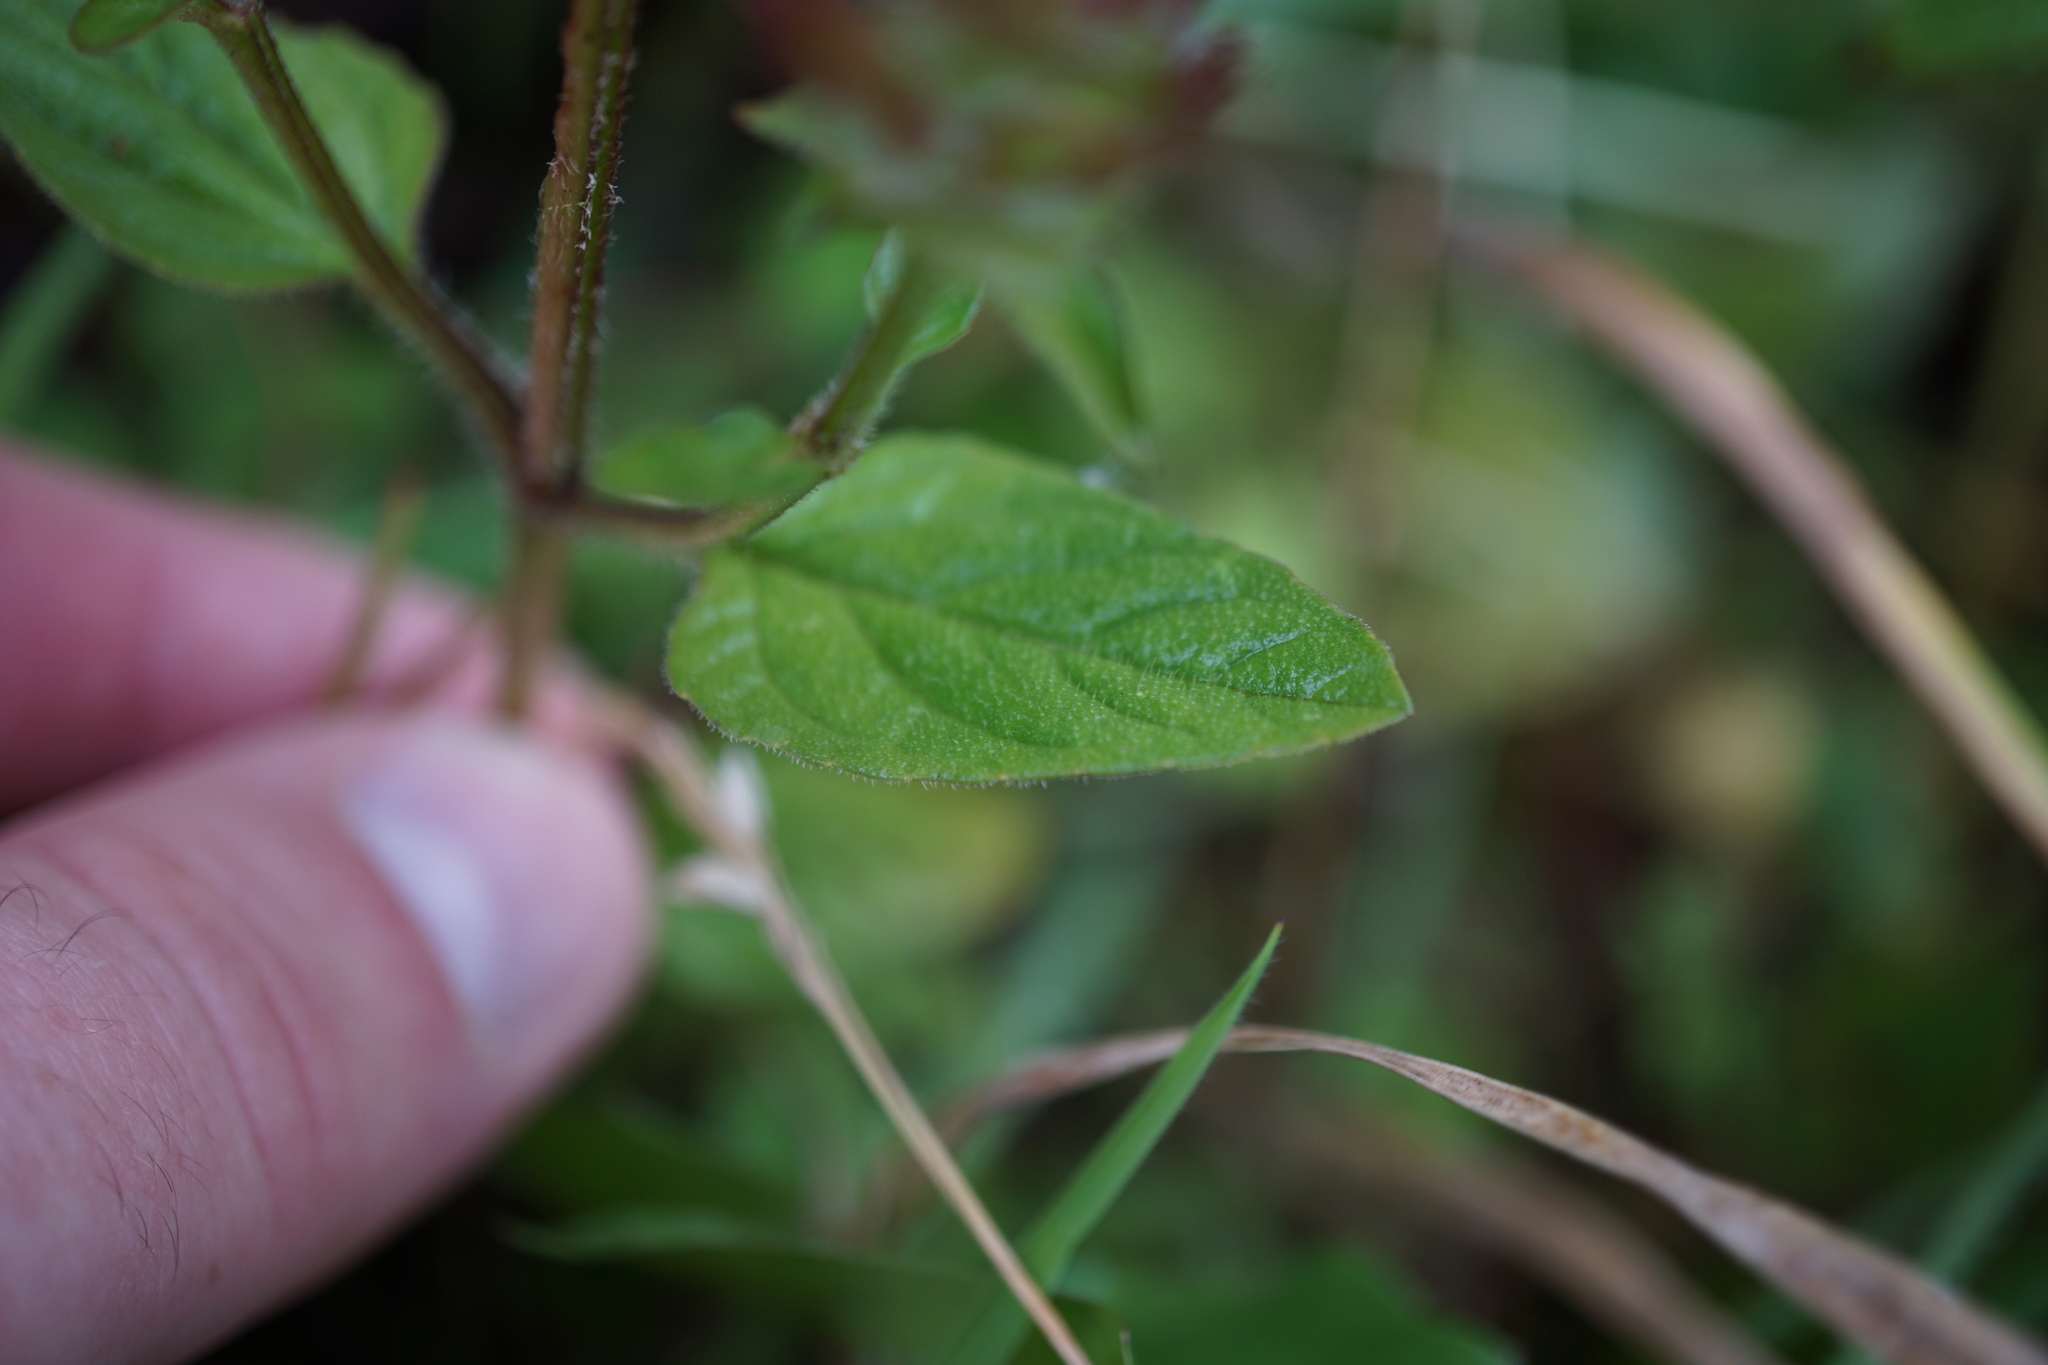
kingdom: Plantae
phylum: Tracheophyta
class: Magnoliopsida
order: Lamiales
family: Lamiaceae
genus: Prunella
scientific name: Prunella vulgaris
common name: Heal-all
